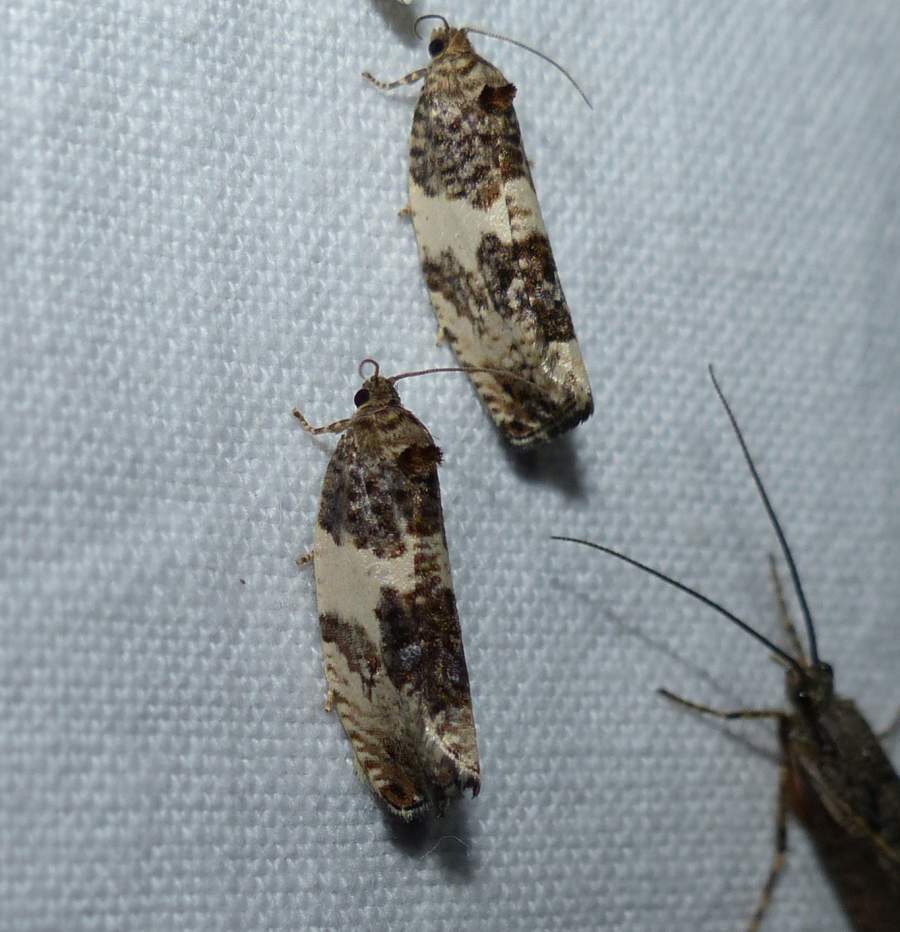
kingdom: Animalia
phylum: Arthropoda
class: Insecta
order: Lepidoptera
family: Tortricidae
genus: Pseudosciaphila
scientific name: Pseudosciaphila duplex
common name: Poplar leafroller moth
